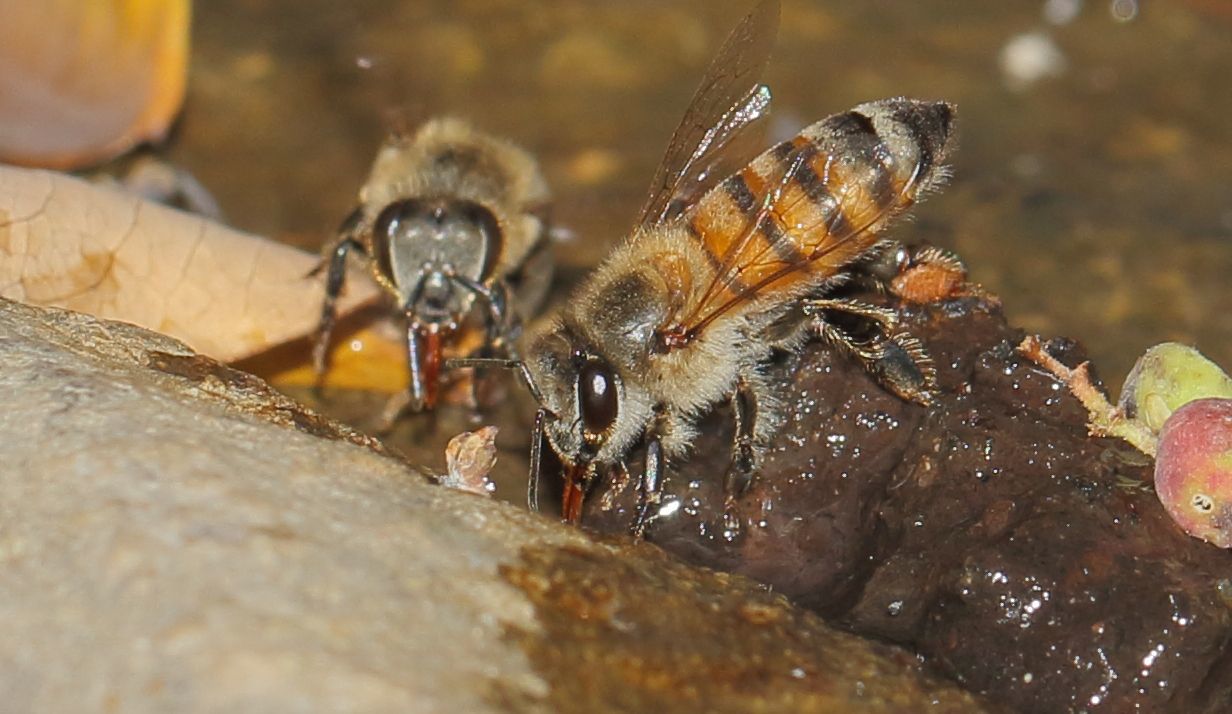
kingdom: Animalia
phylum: Arthropoda
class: Insecta
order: Hymenoptera
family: Apidae
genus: Apis
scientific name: Apis mellifera
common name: Honey bee
